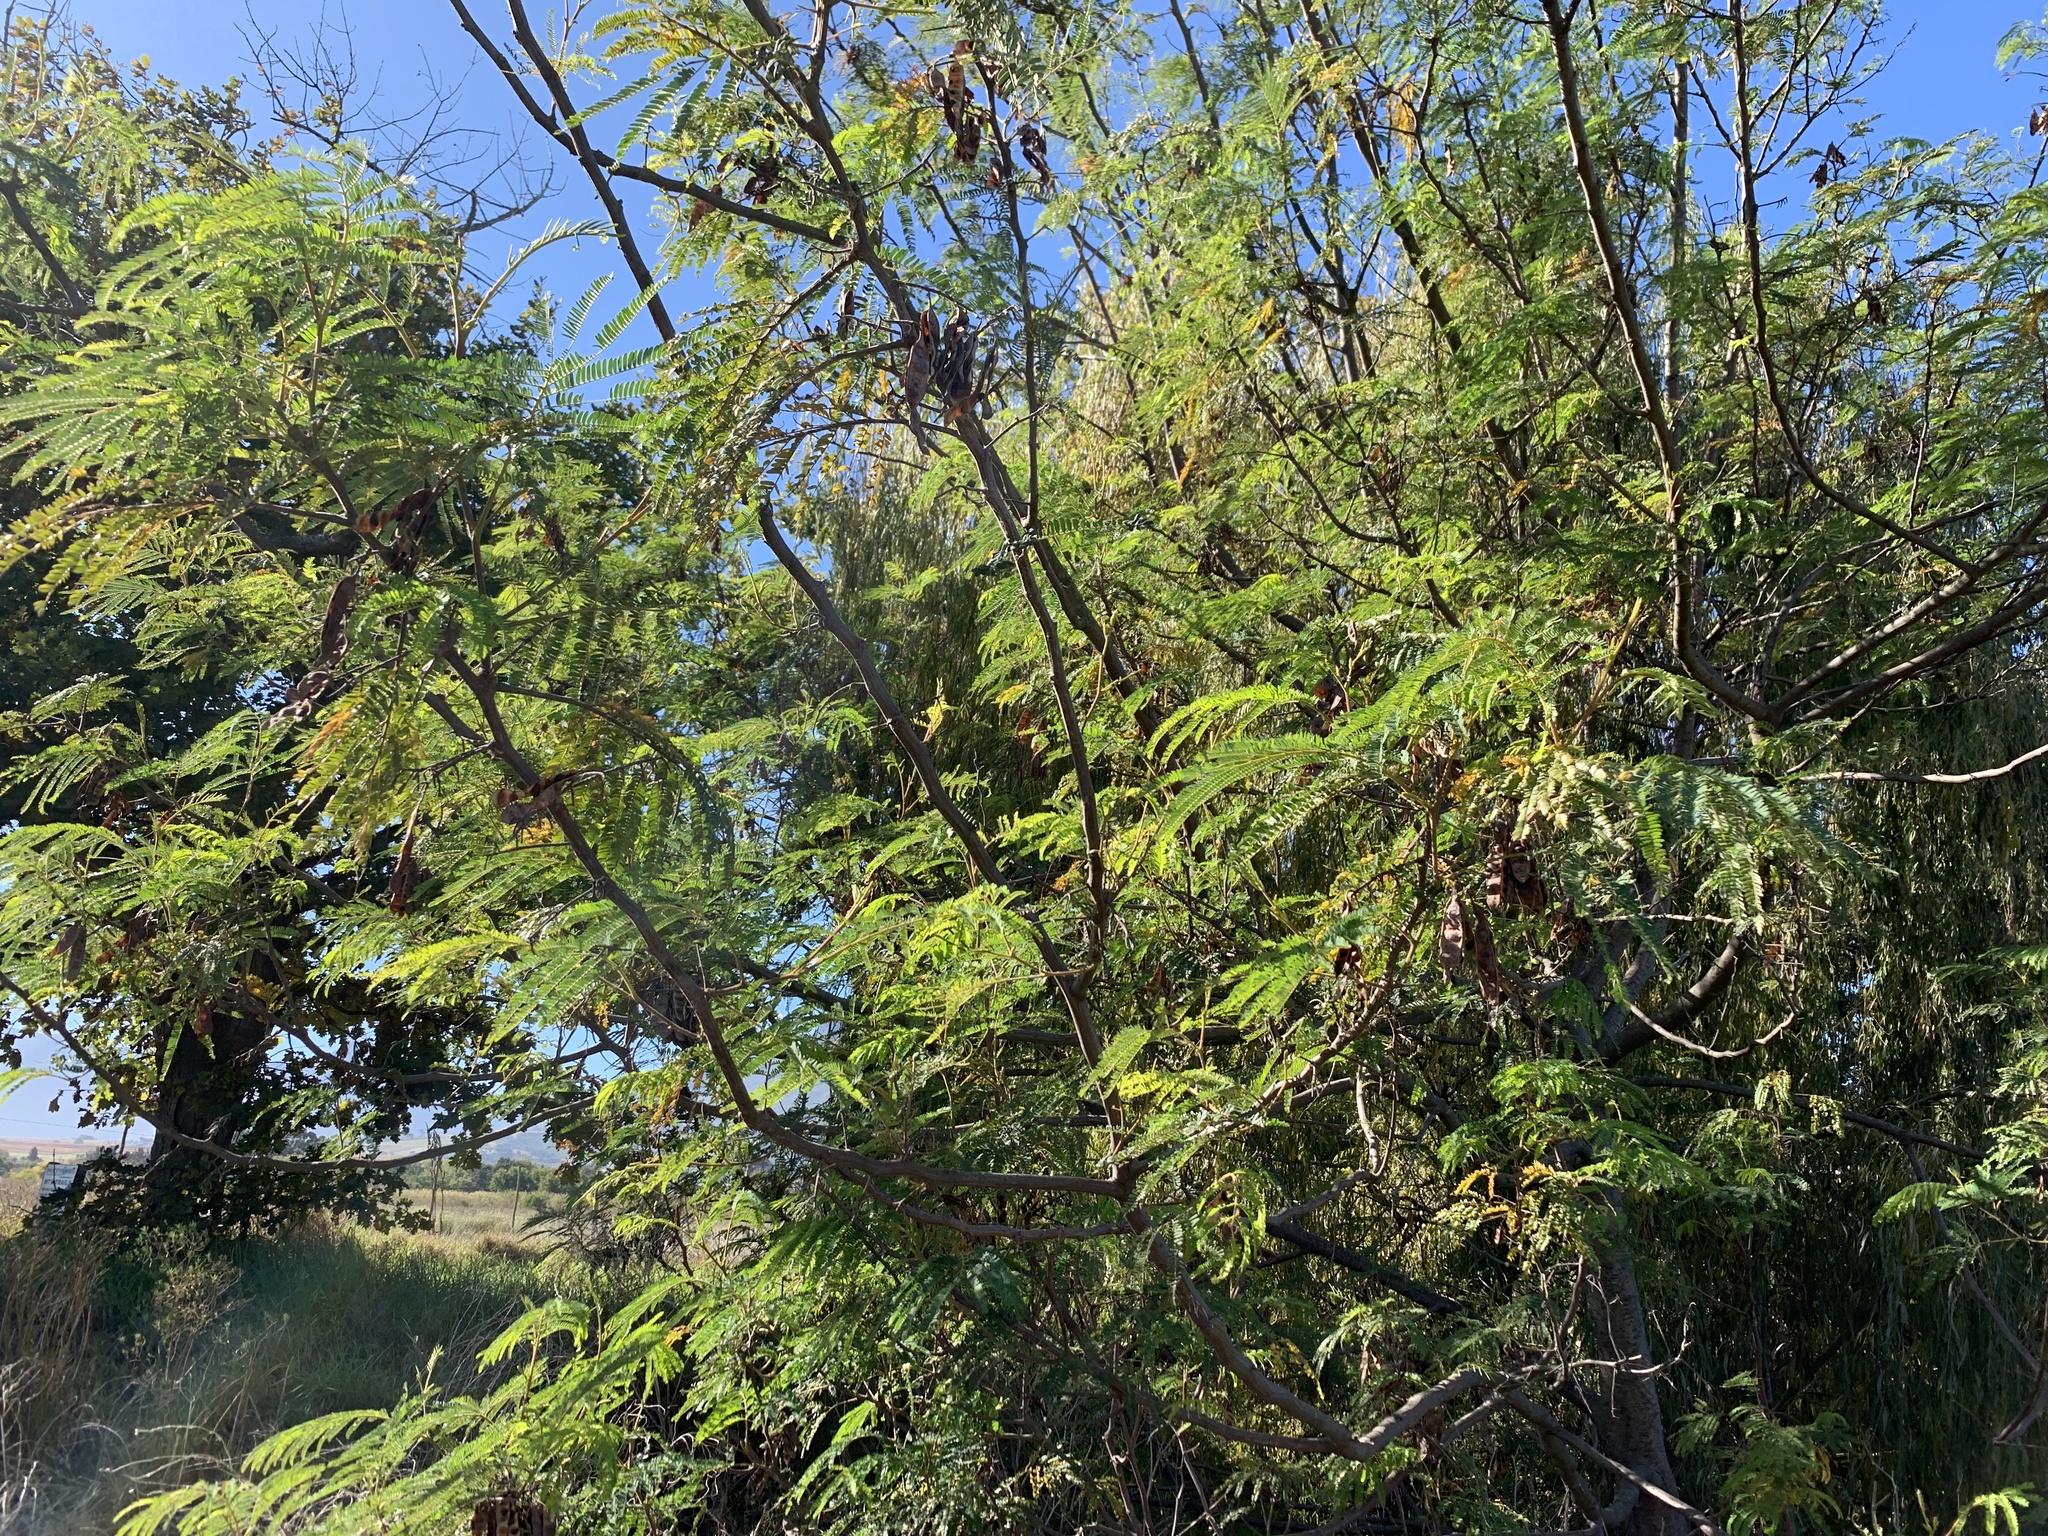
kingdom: Plantae
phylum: Tracheophyta
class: Magnoliopsida
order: Fabales
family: Fabaceae
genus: Paraserianthes
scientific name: Paraserianthes lophantha
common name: Plume albizia
